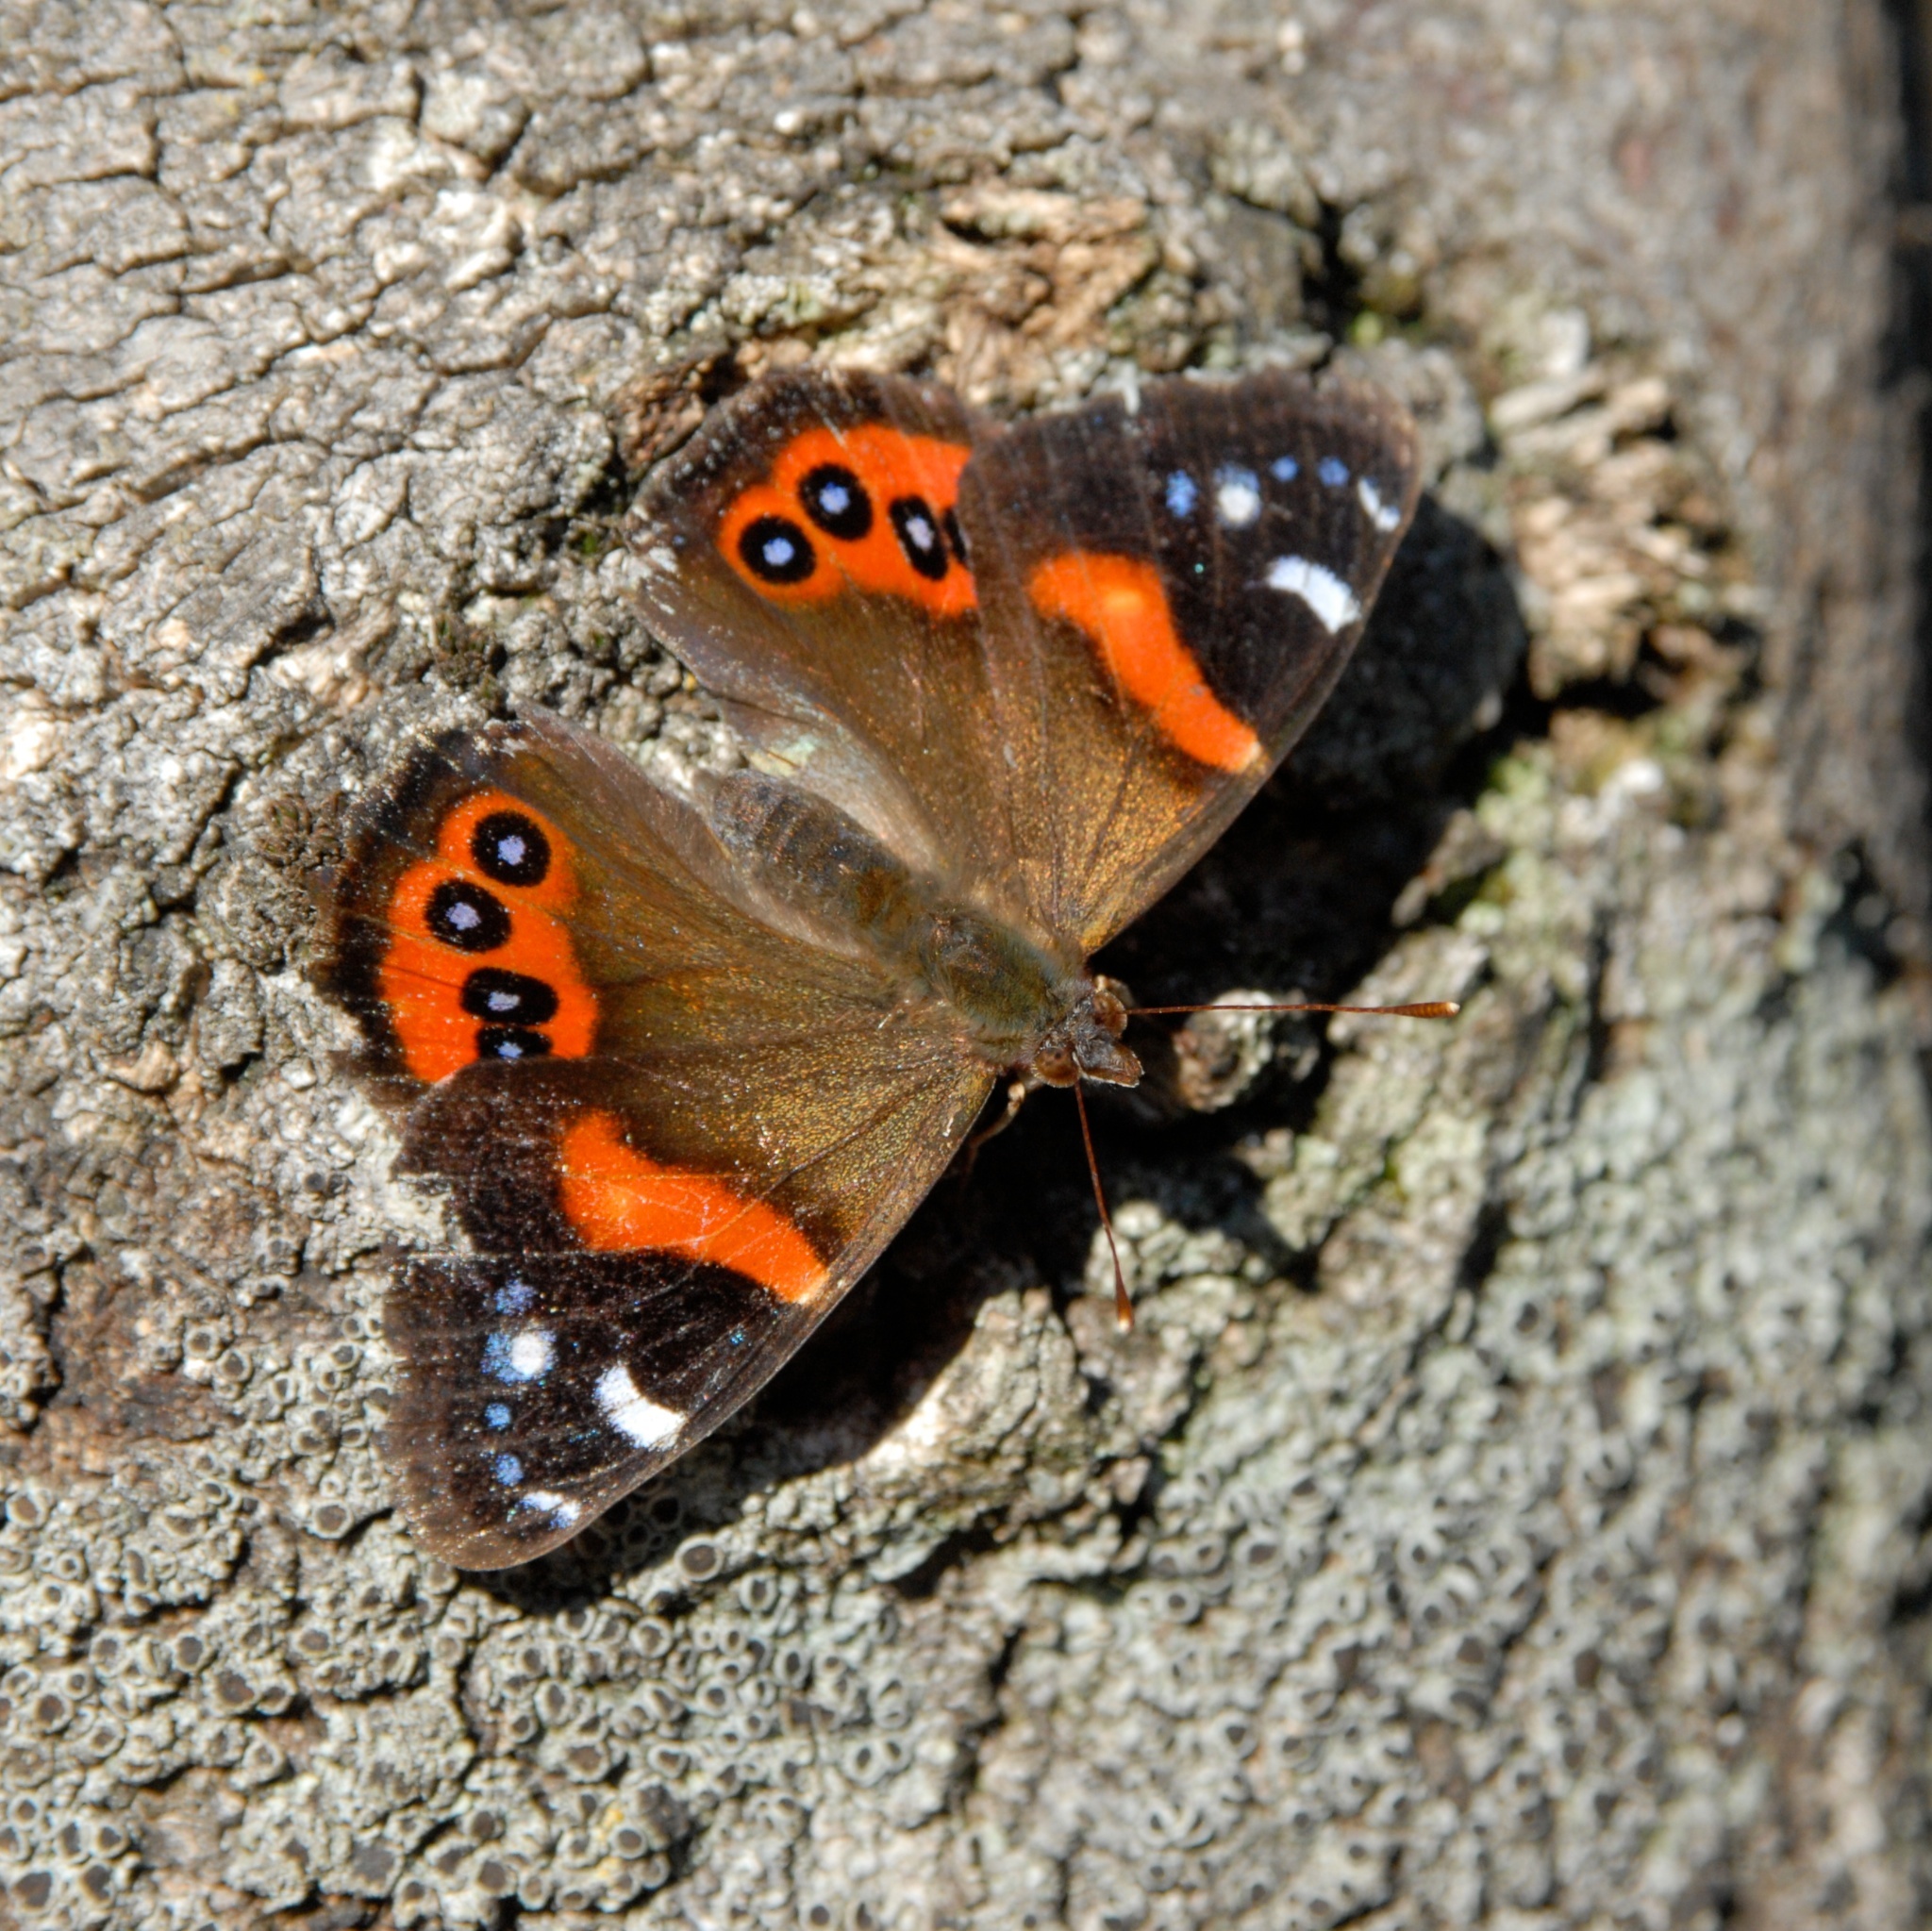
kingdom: Animalia
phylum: Arthropoda
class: Insecta
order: Lepidoptera
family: Nymphalidae
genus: Vanessa
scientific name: Vanessa gonerilla
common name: New zealand red admiral
